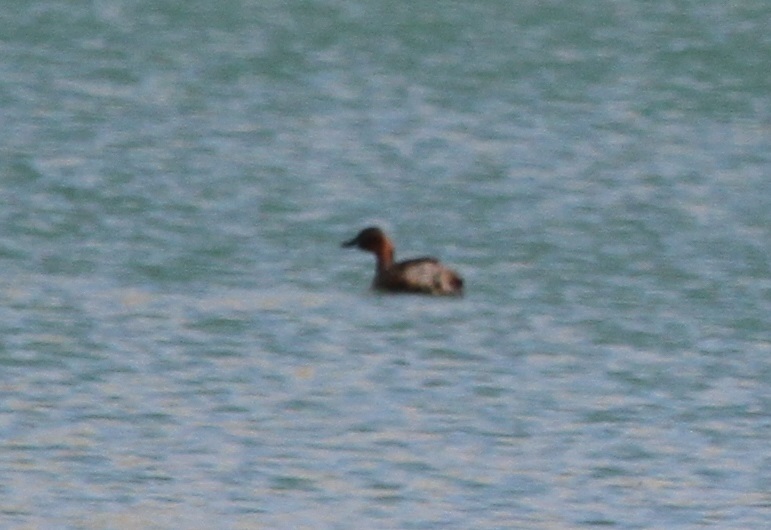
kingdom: Animalia
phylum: Chordata
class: Aves
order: Podicipediformes
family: Podicipedidae
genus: Tachybaptus
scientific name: Tachybaptus ruficollis
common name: Little grebe
